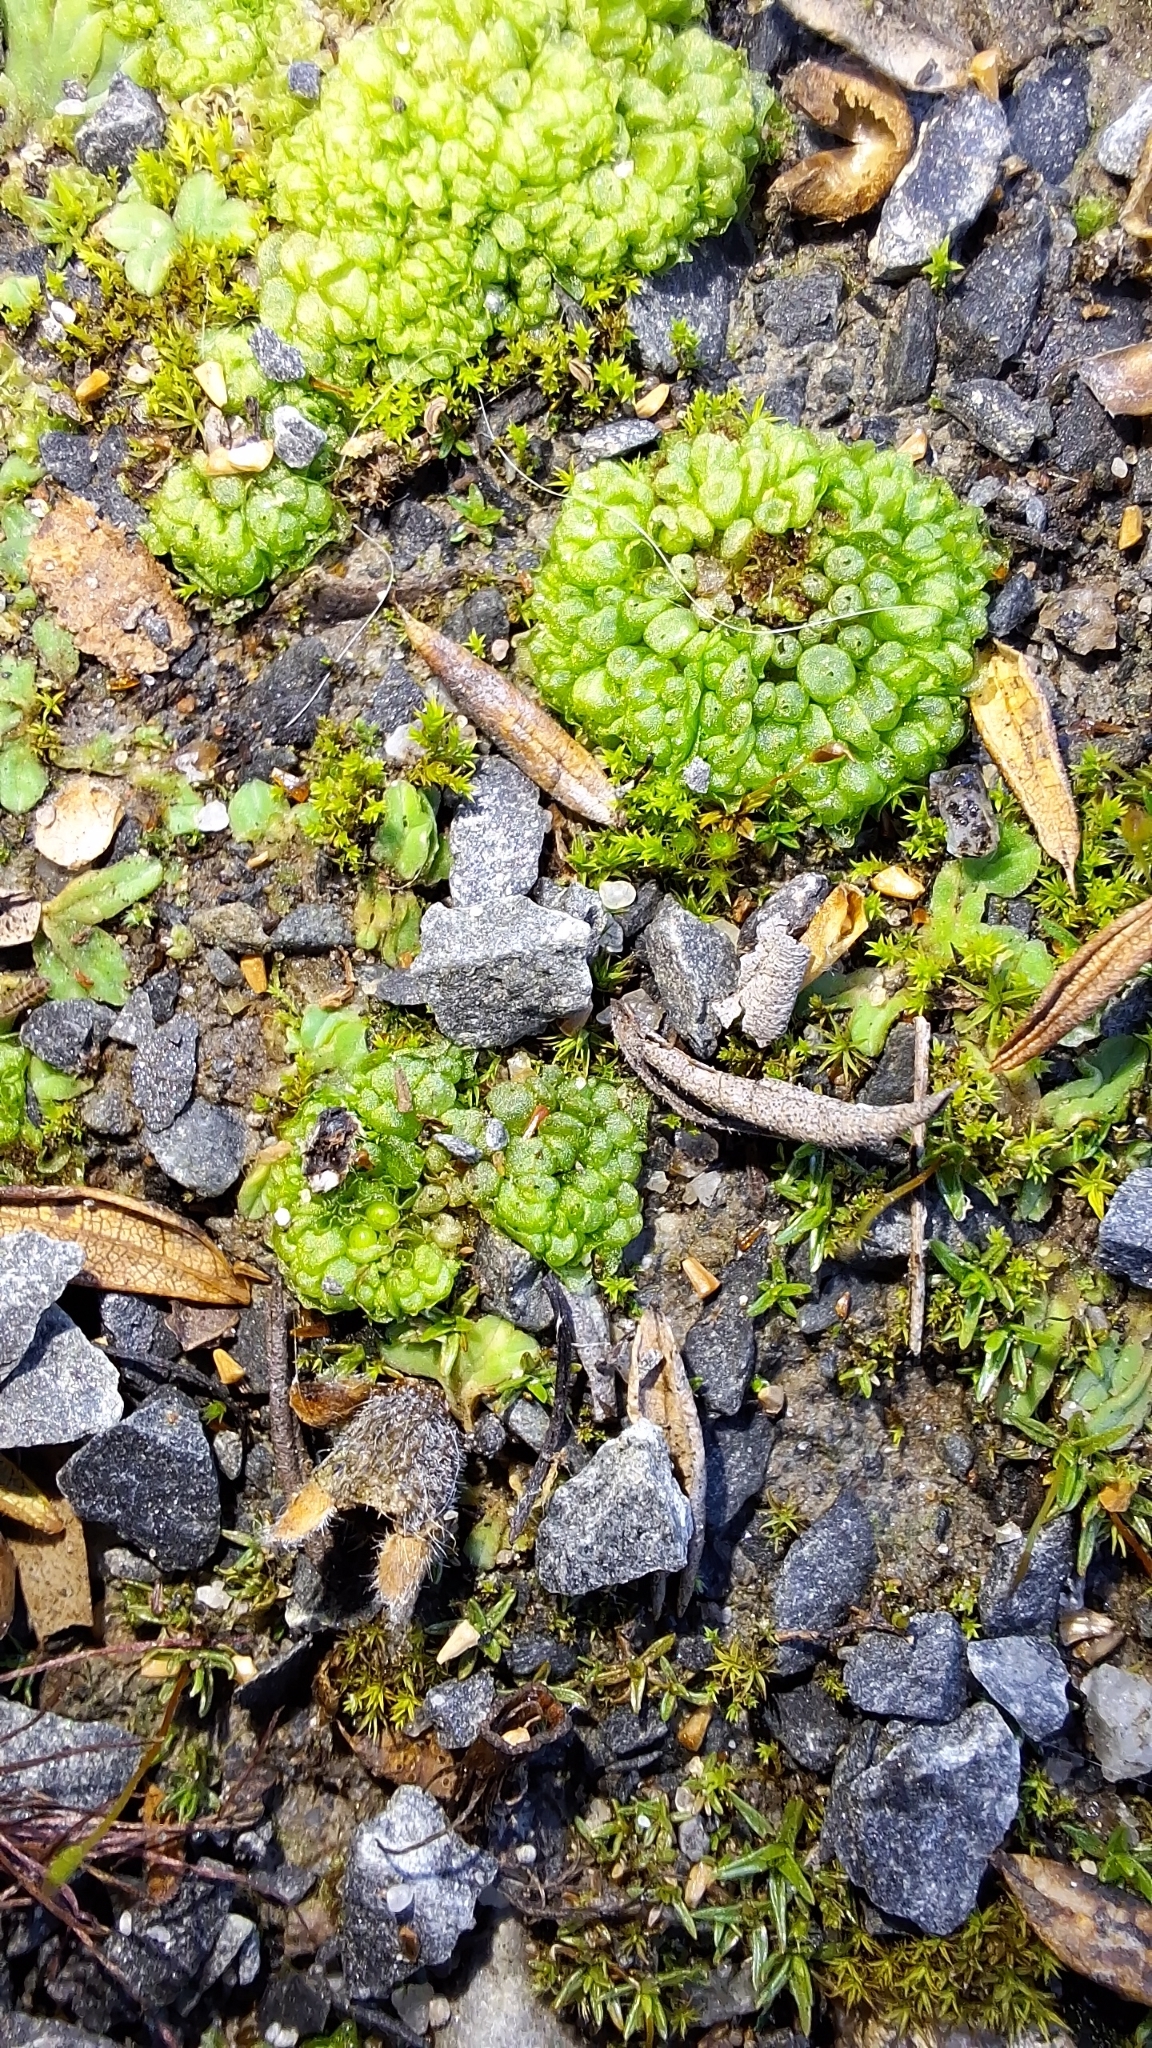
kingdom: Plantae
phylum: Marchantiophyta
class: Marchantiopsida
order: Sphaerocarpales
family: Sphaerocarpaceae
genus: Sphaerocarpos
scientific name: Sphaerocarpos texanus
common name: Texas balloonwort
